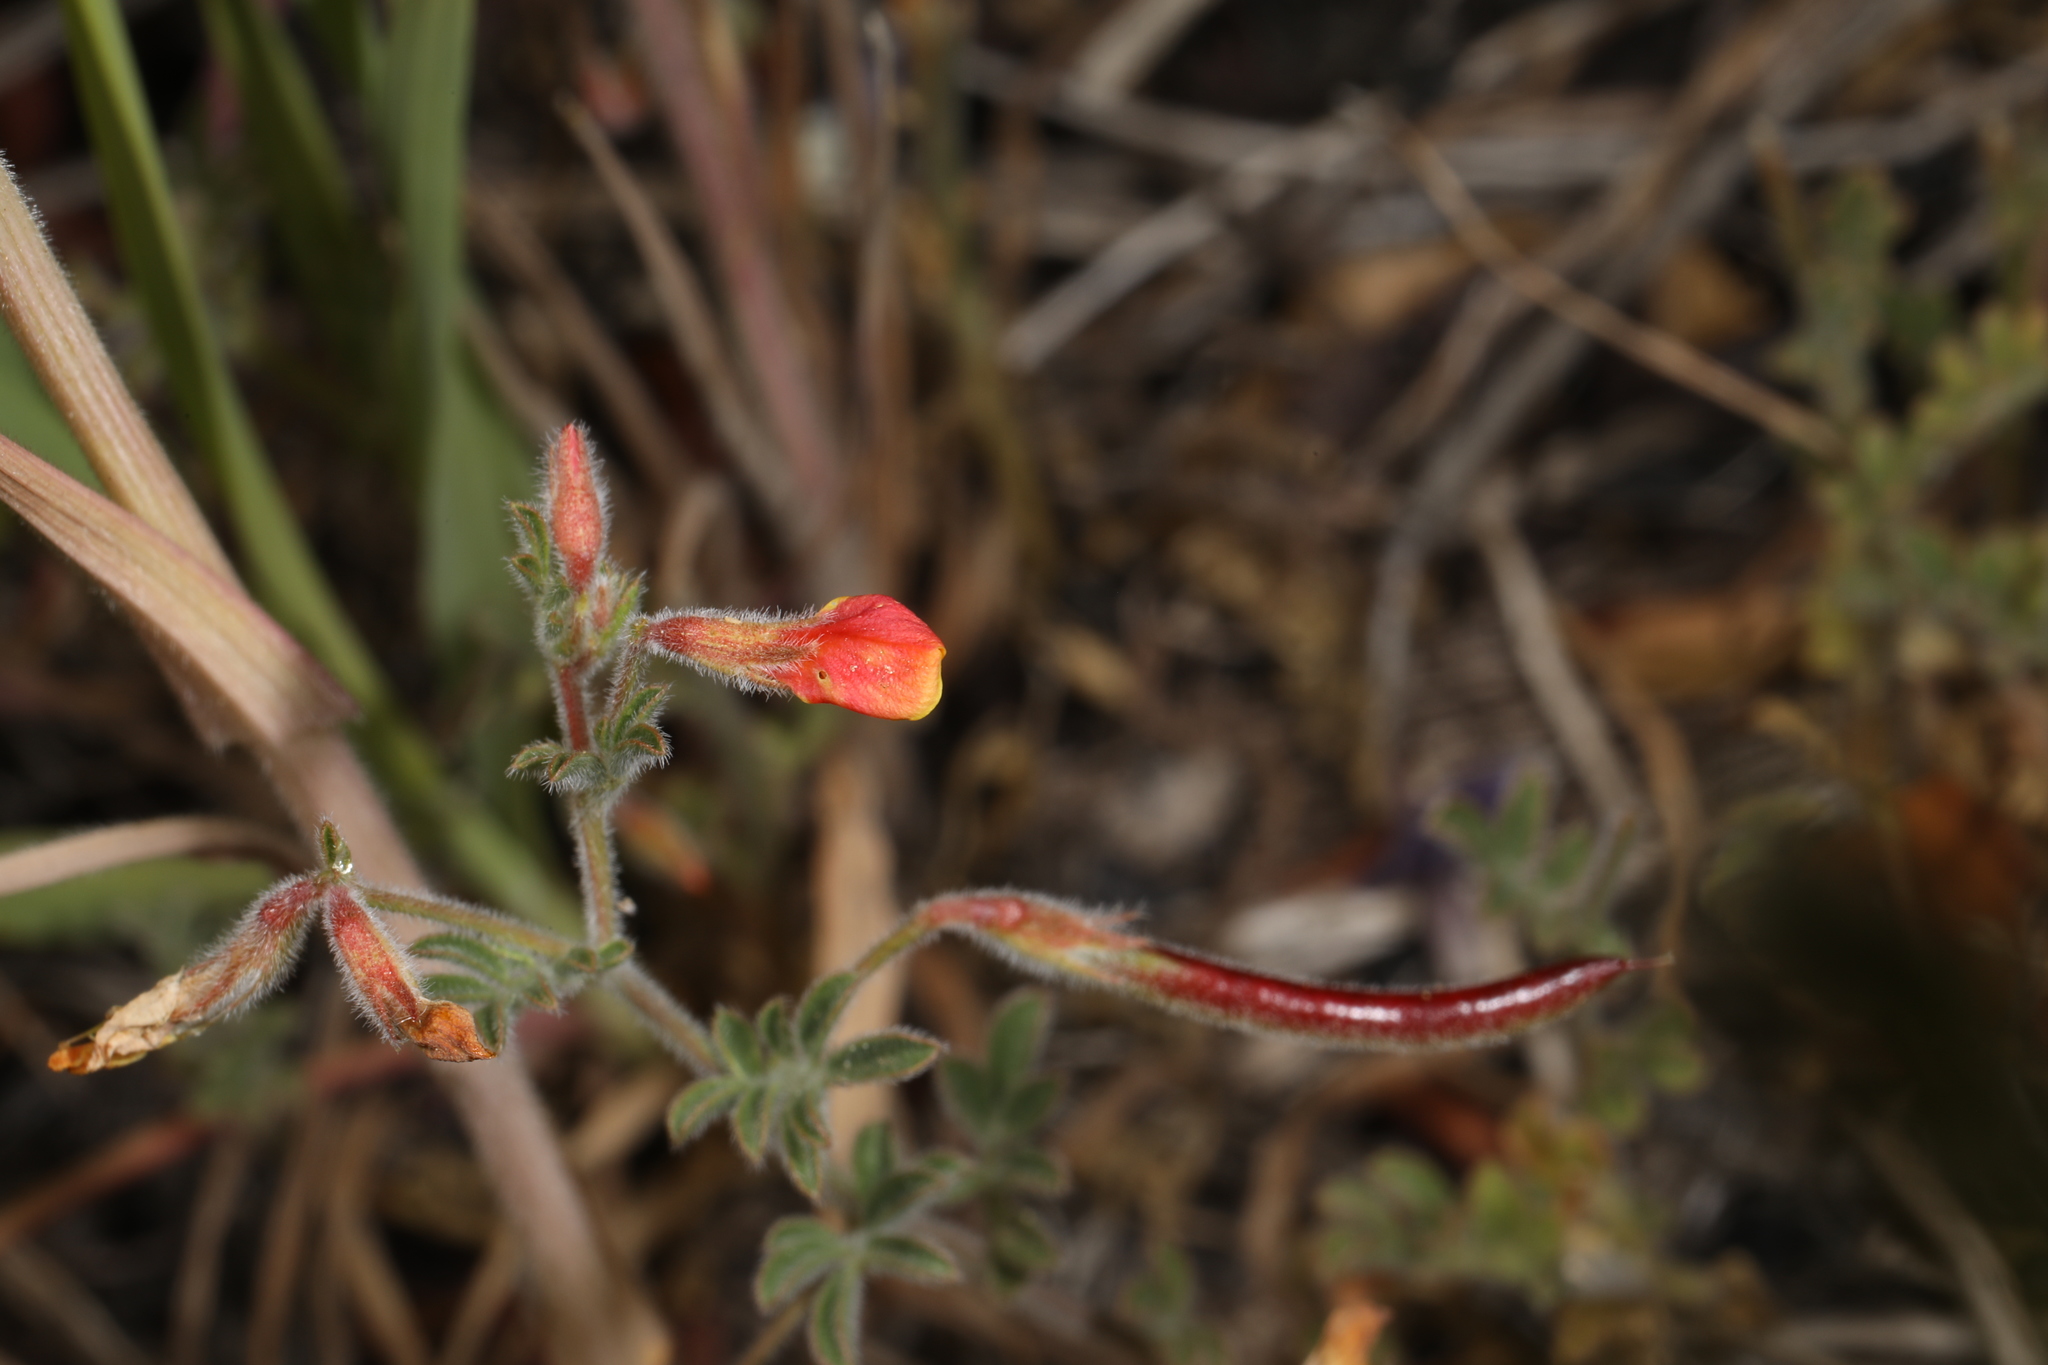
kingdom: Plantae
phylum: Tracheophyta
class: Magnoliopsida
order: Fabales
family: Fabaceae
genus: Acmispon
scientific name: Acmispon strigosus
